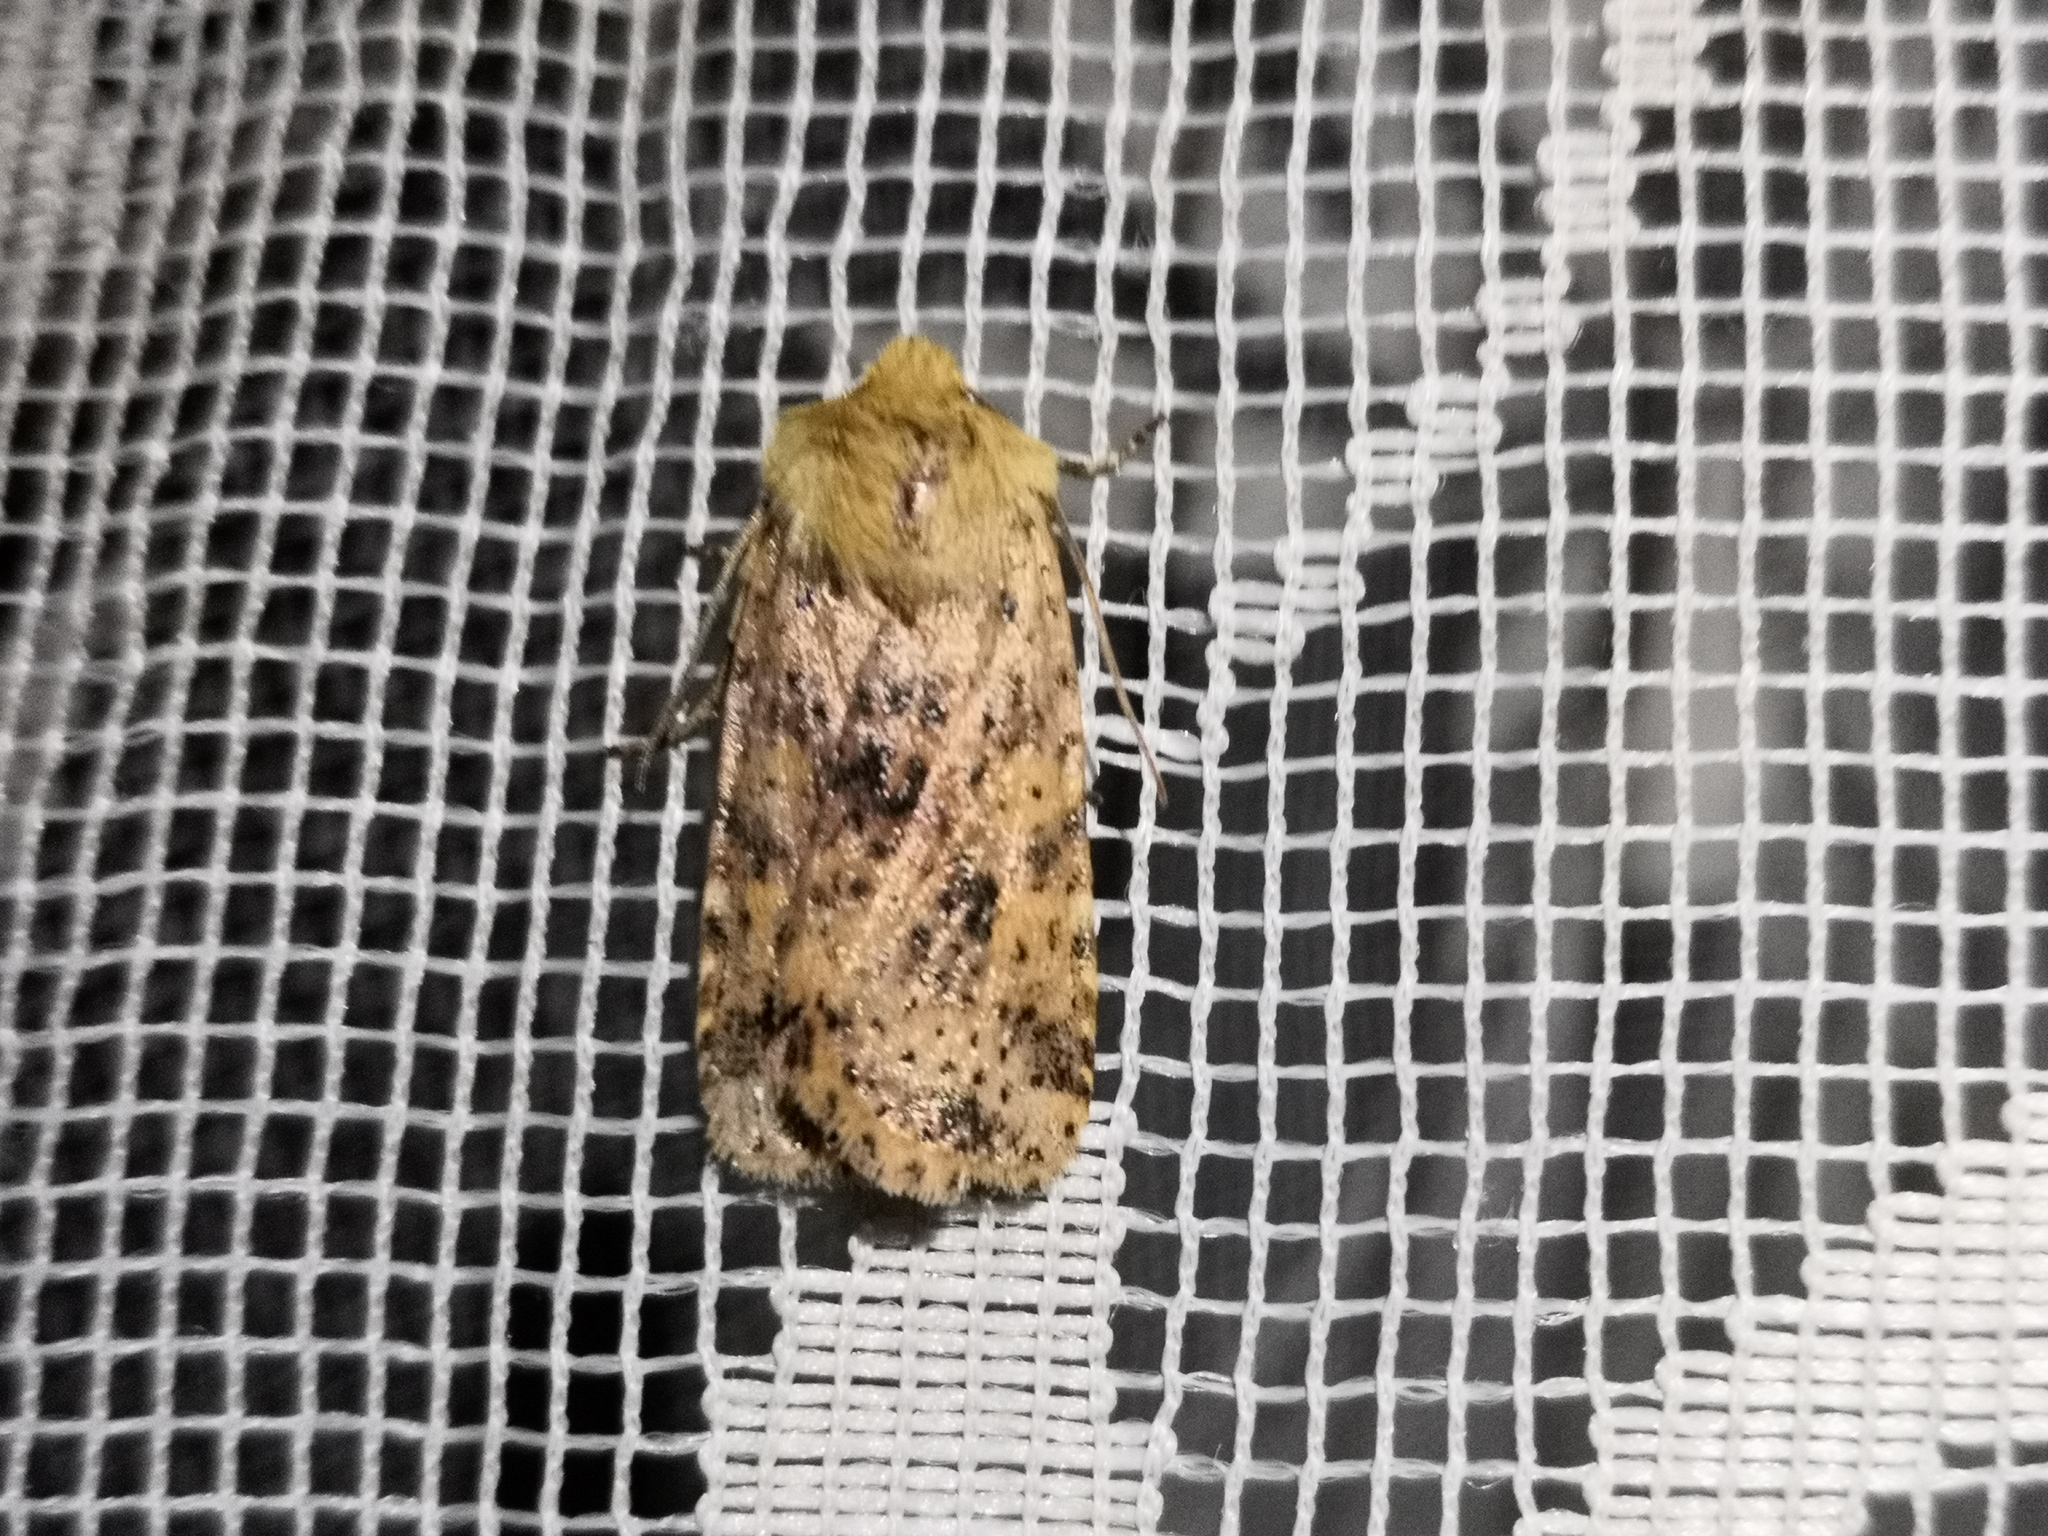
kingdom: Animalia
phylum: Arthropoda
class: Insecta
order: Lepidoptera
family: Noctuidae
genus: Conistra
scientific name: Conistra rubiginea
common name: Dotted chestnut
